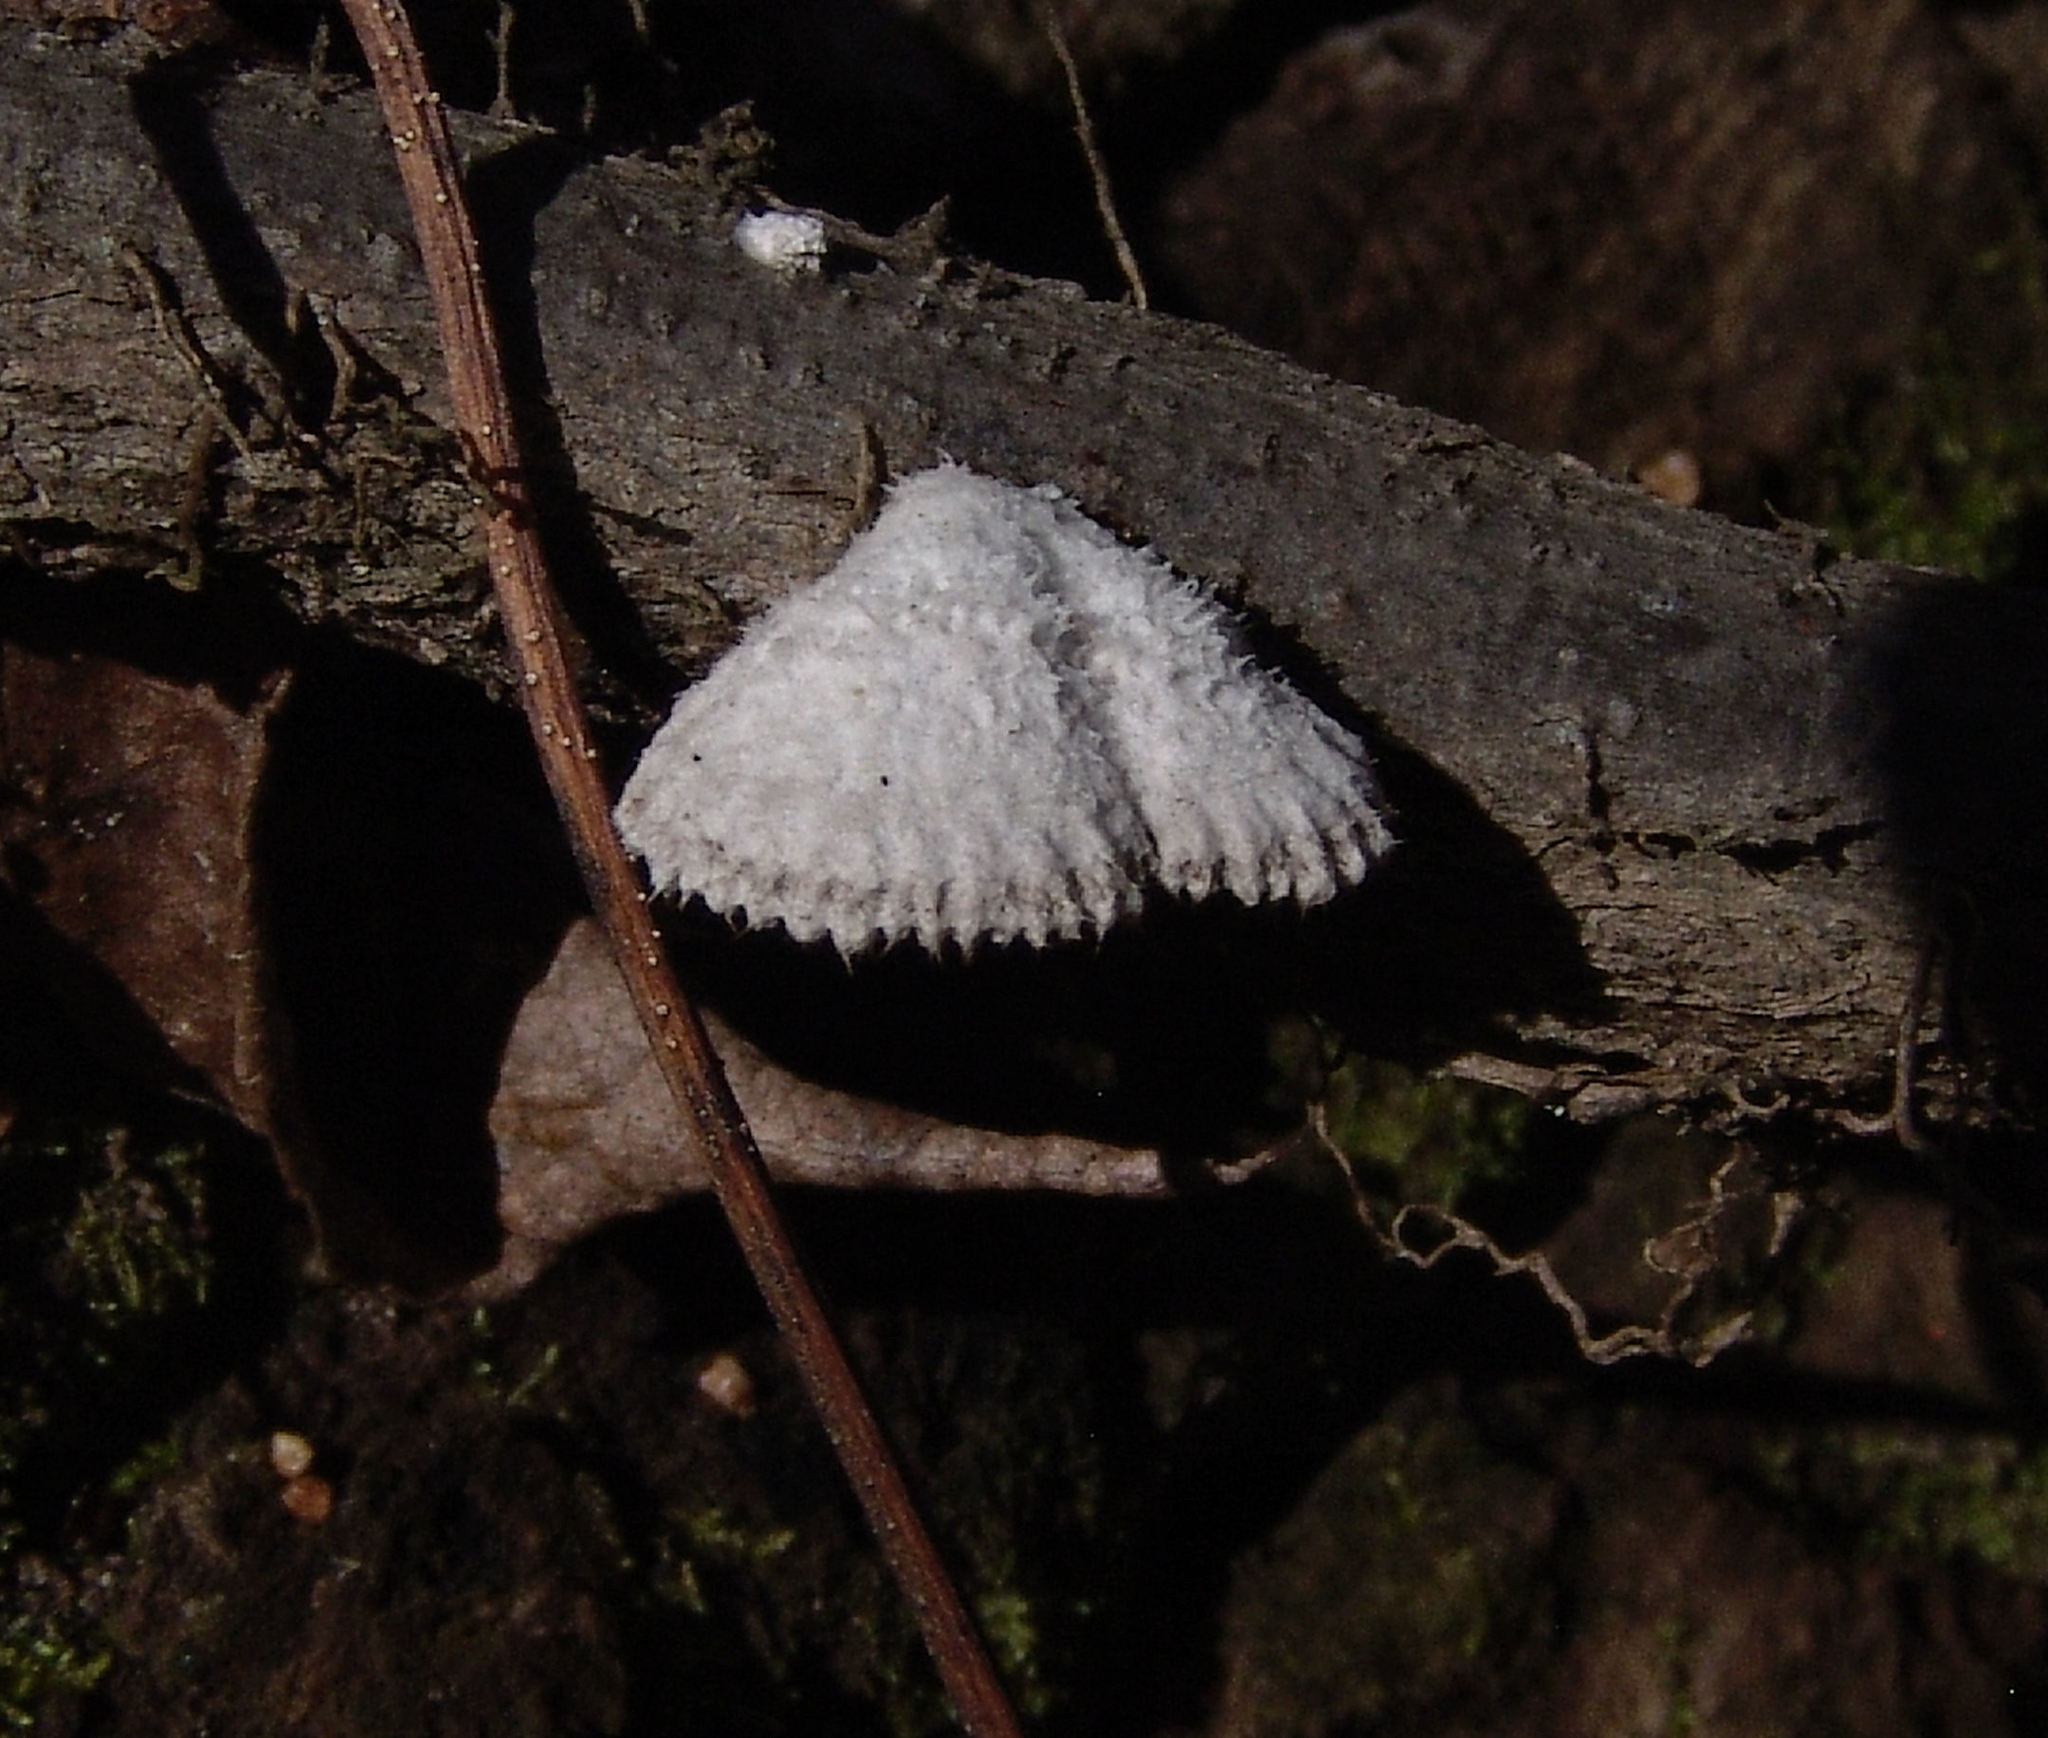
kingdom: Fungi
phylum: Basidiomycota
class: Agaricomycetes
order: Agaricales
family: Schizophyllaceae
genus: Schizophyllum
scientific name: Schizophyllum commune
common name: Common porecrust
